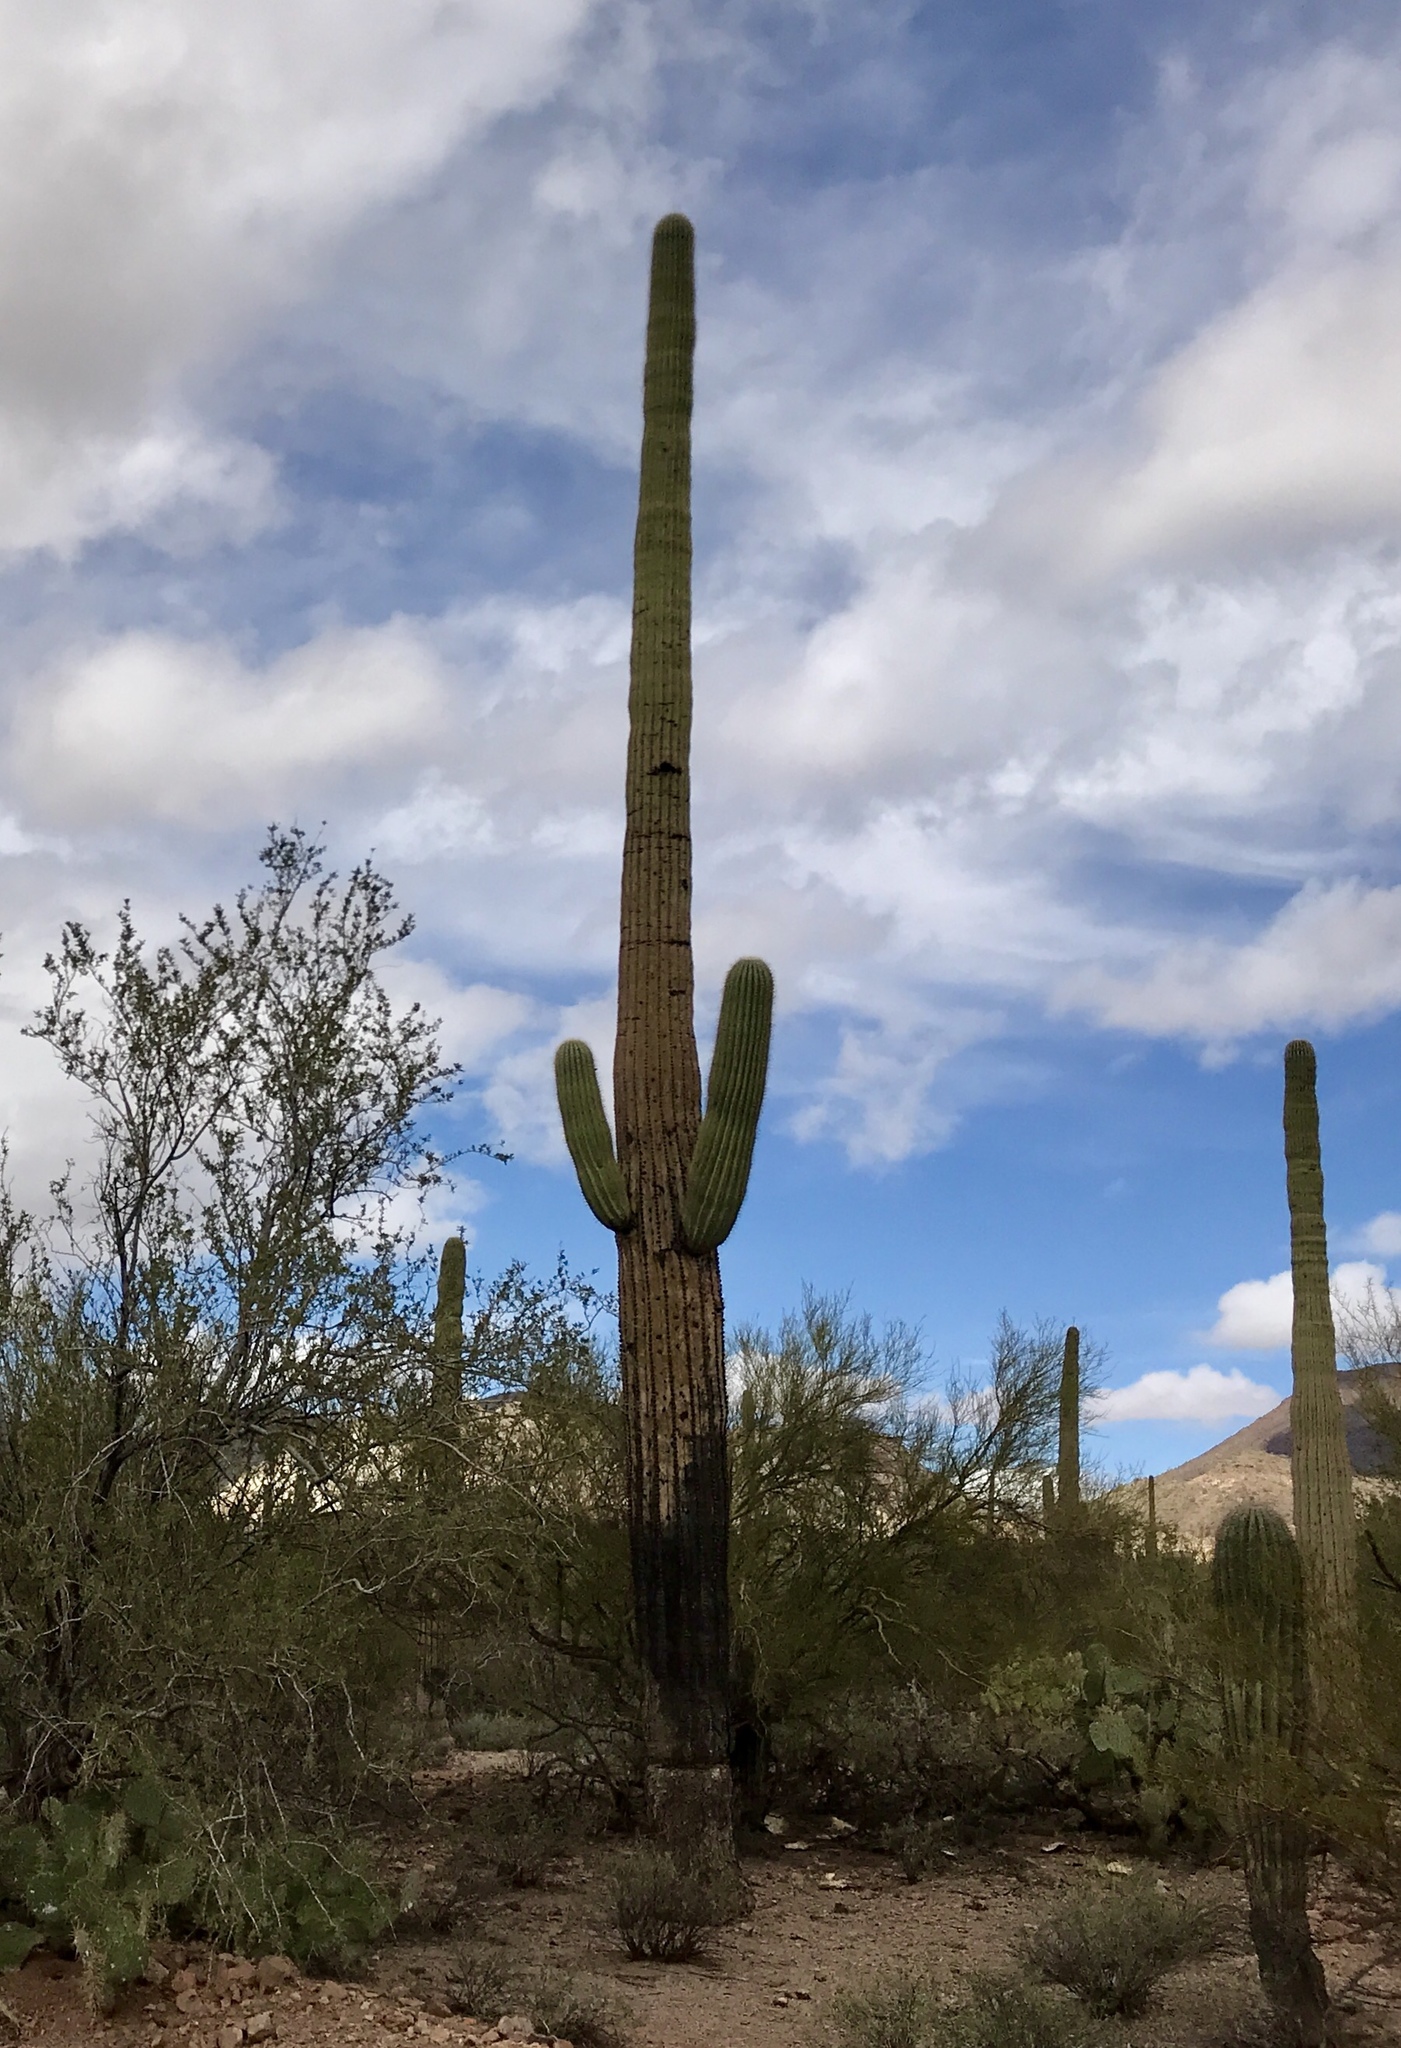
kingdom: Plantae
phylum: Tracheophyta
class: Magnoliopsida
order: Caryophyllales
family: Cactaceae
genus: Carnegiea
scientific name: Carnegiea gigantea
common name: Saguaro
